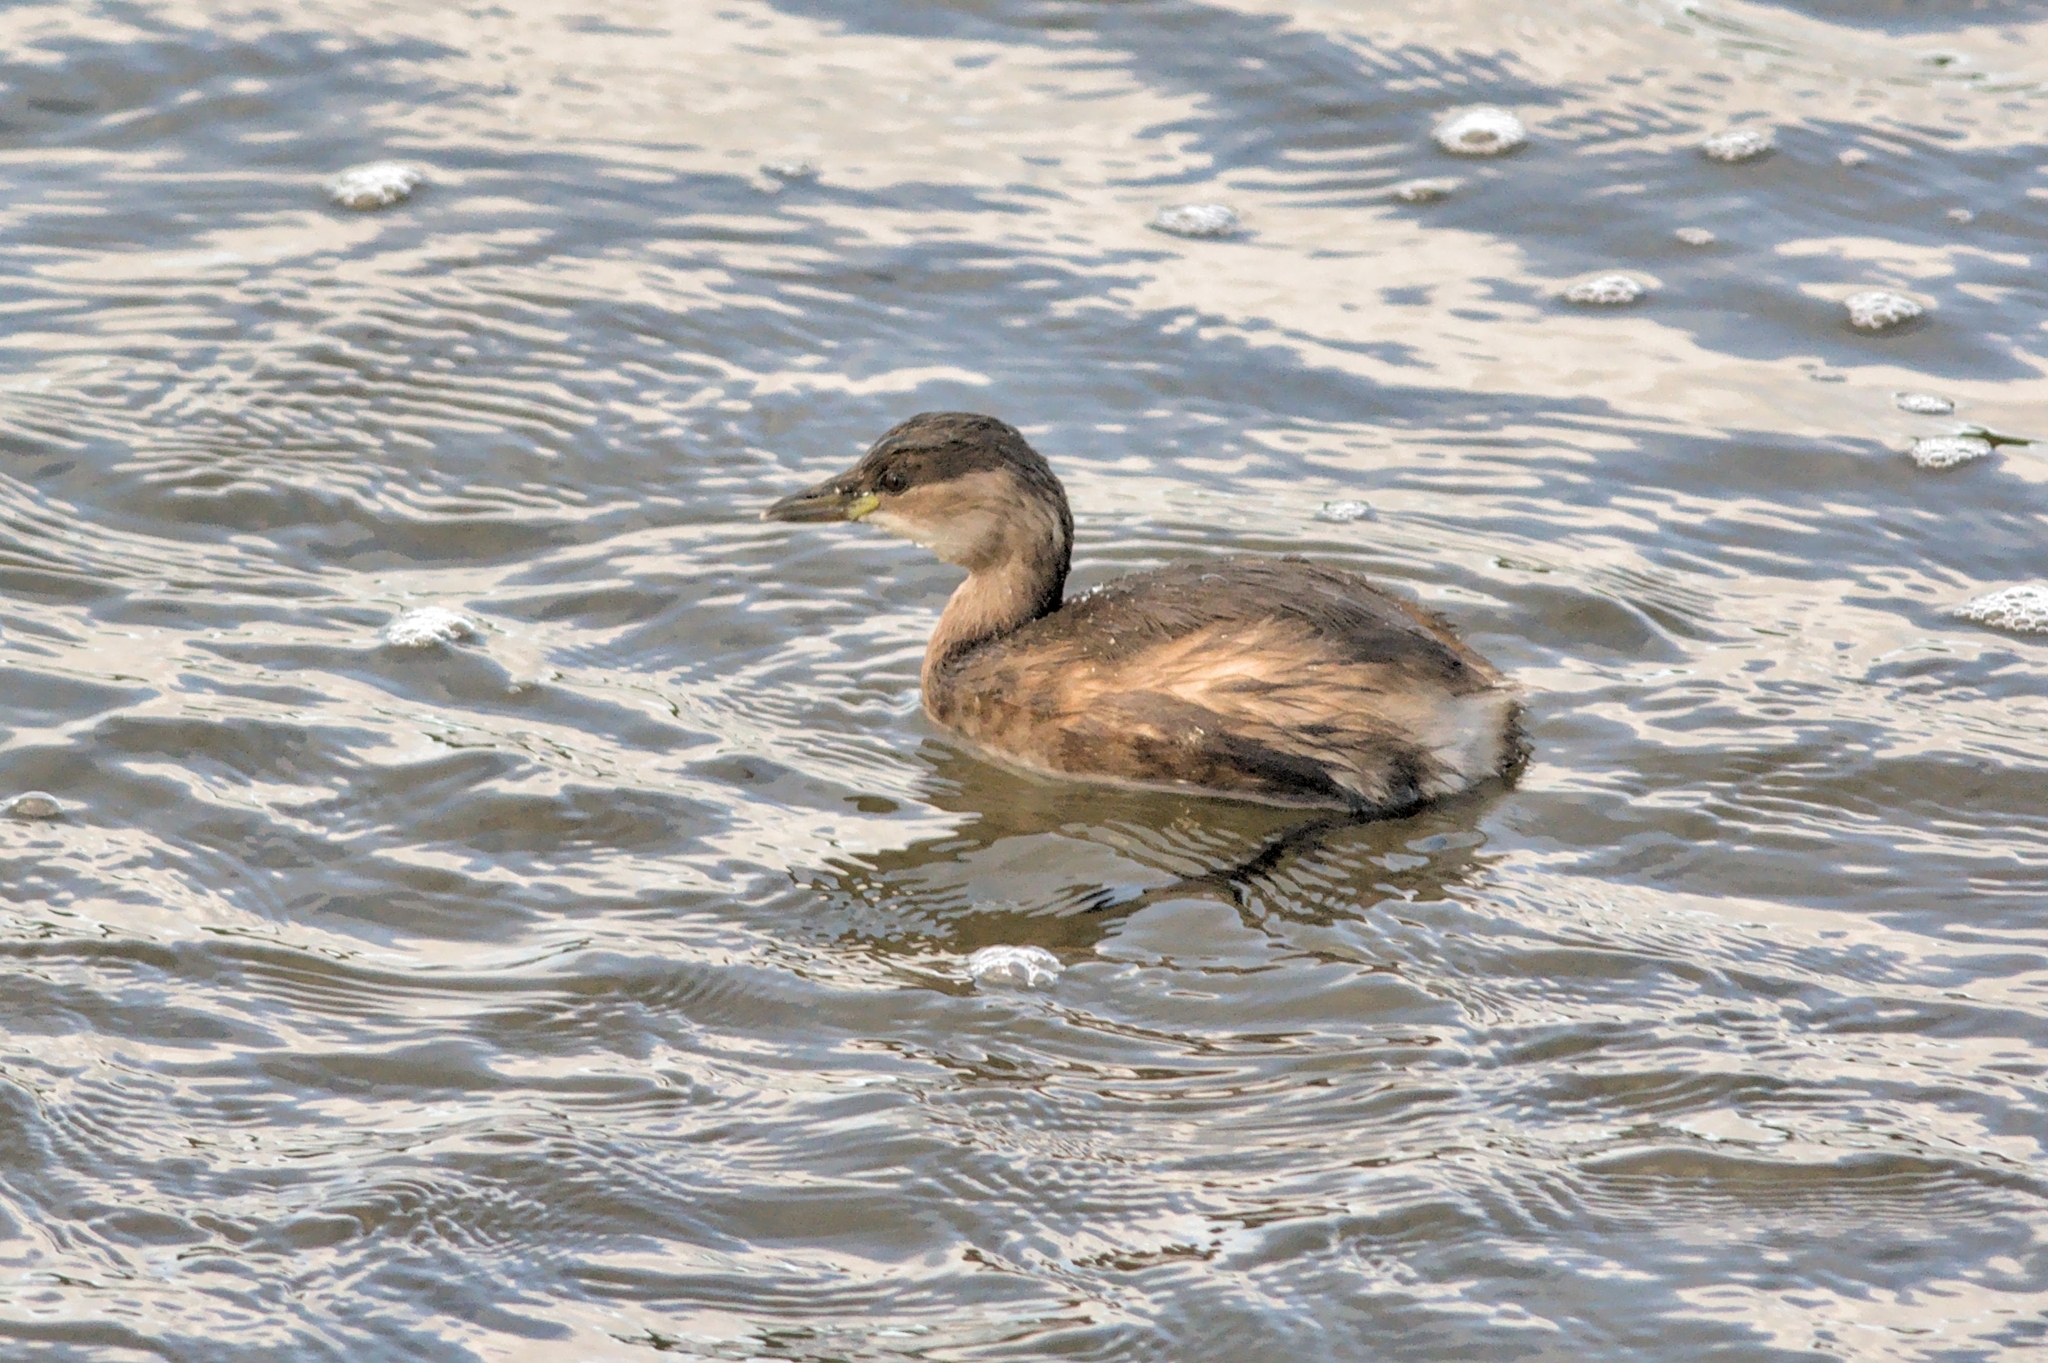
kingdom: Animalia
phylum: Chordata
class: Aves
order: Podicipediformes
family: Podicipedidae
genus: Tachybaptus
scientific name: Tachybaptus ruficollis
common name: Little grebe
